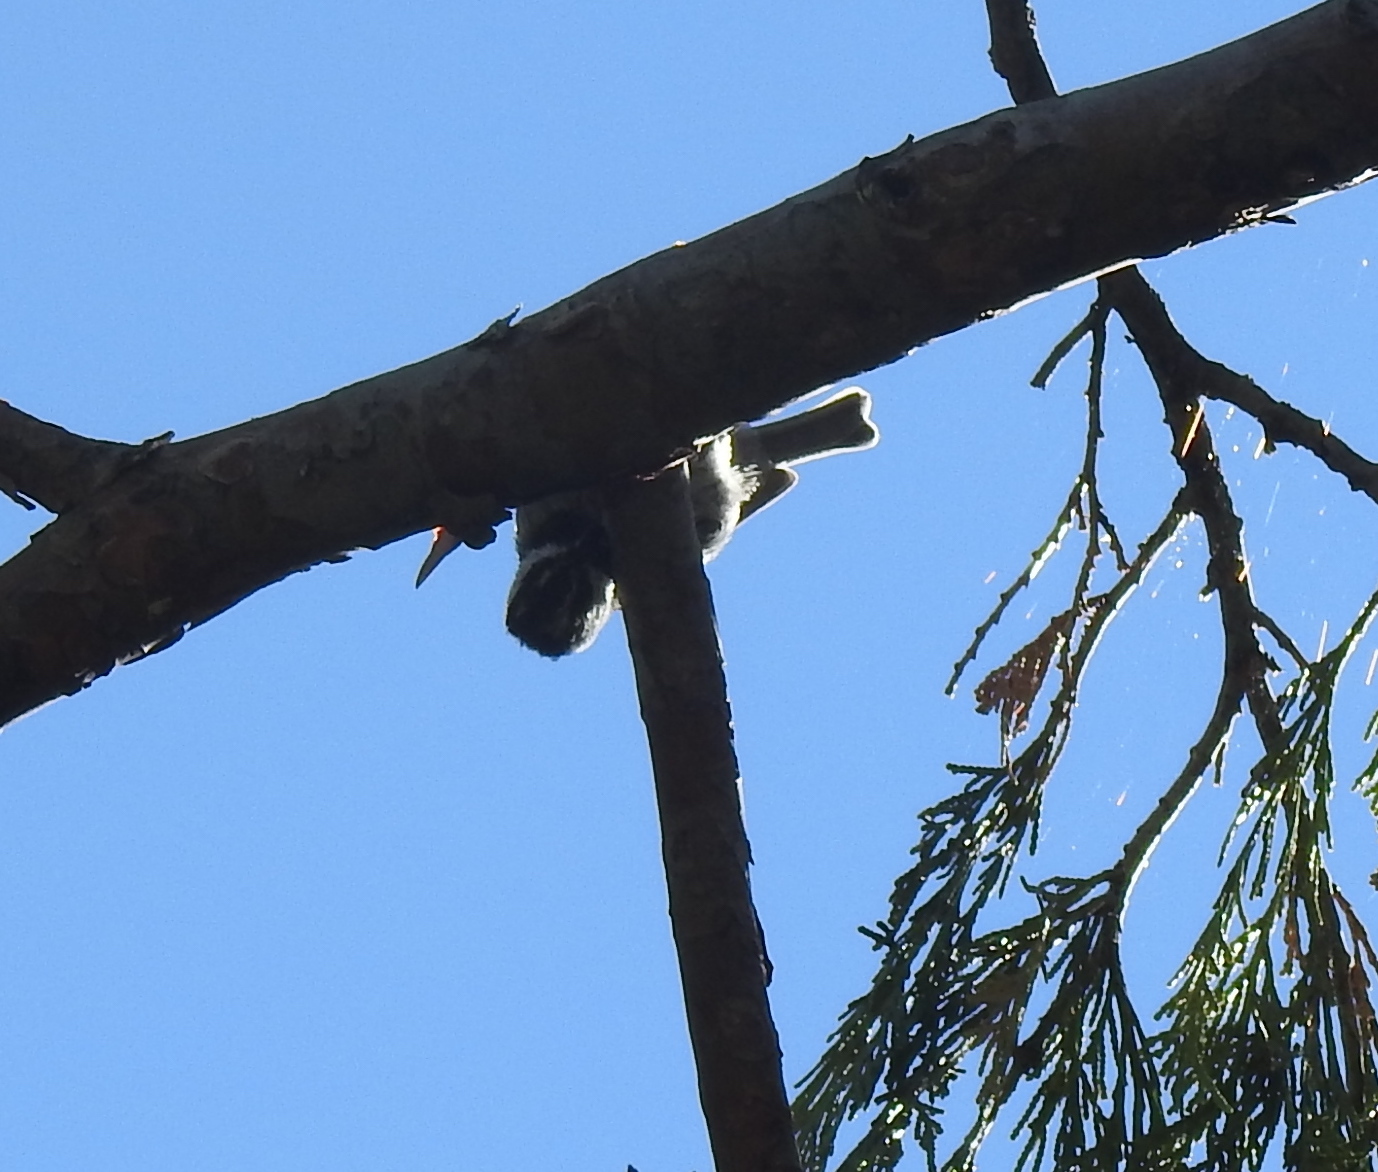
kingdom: Animalia
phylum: Chordata
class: Aves
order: Passeriformes
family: Paridae
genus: Poecile
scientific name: Poecile gambeli
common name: Mountain chickadee
